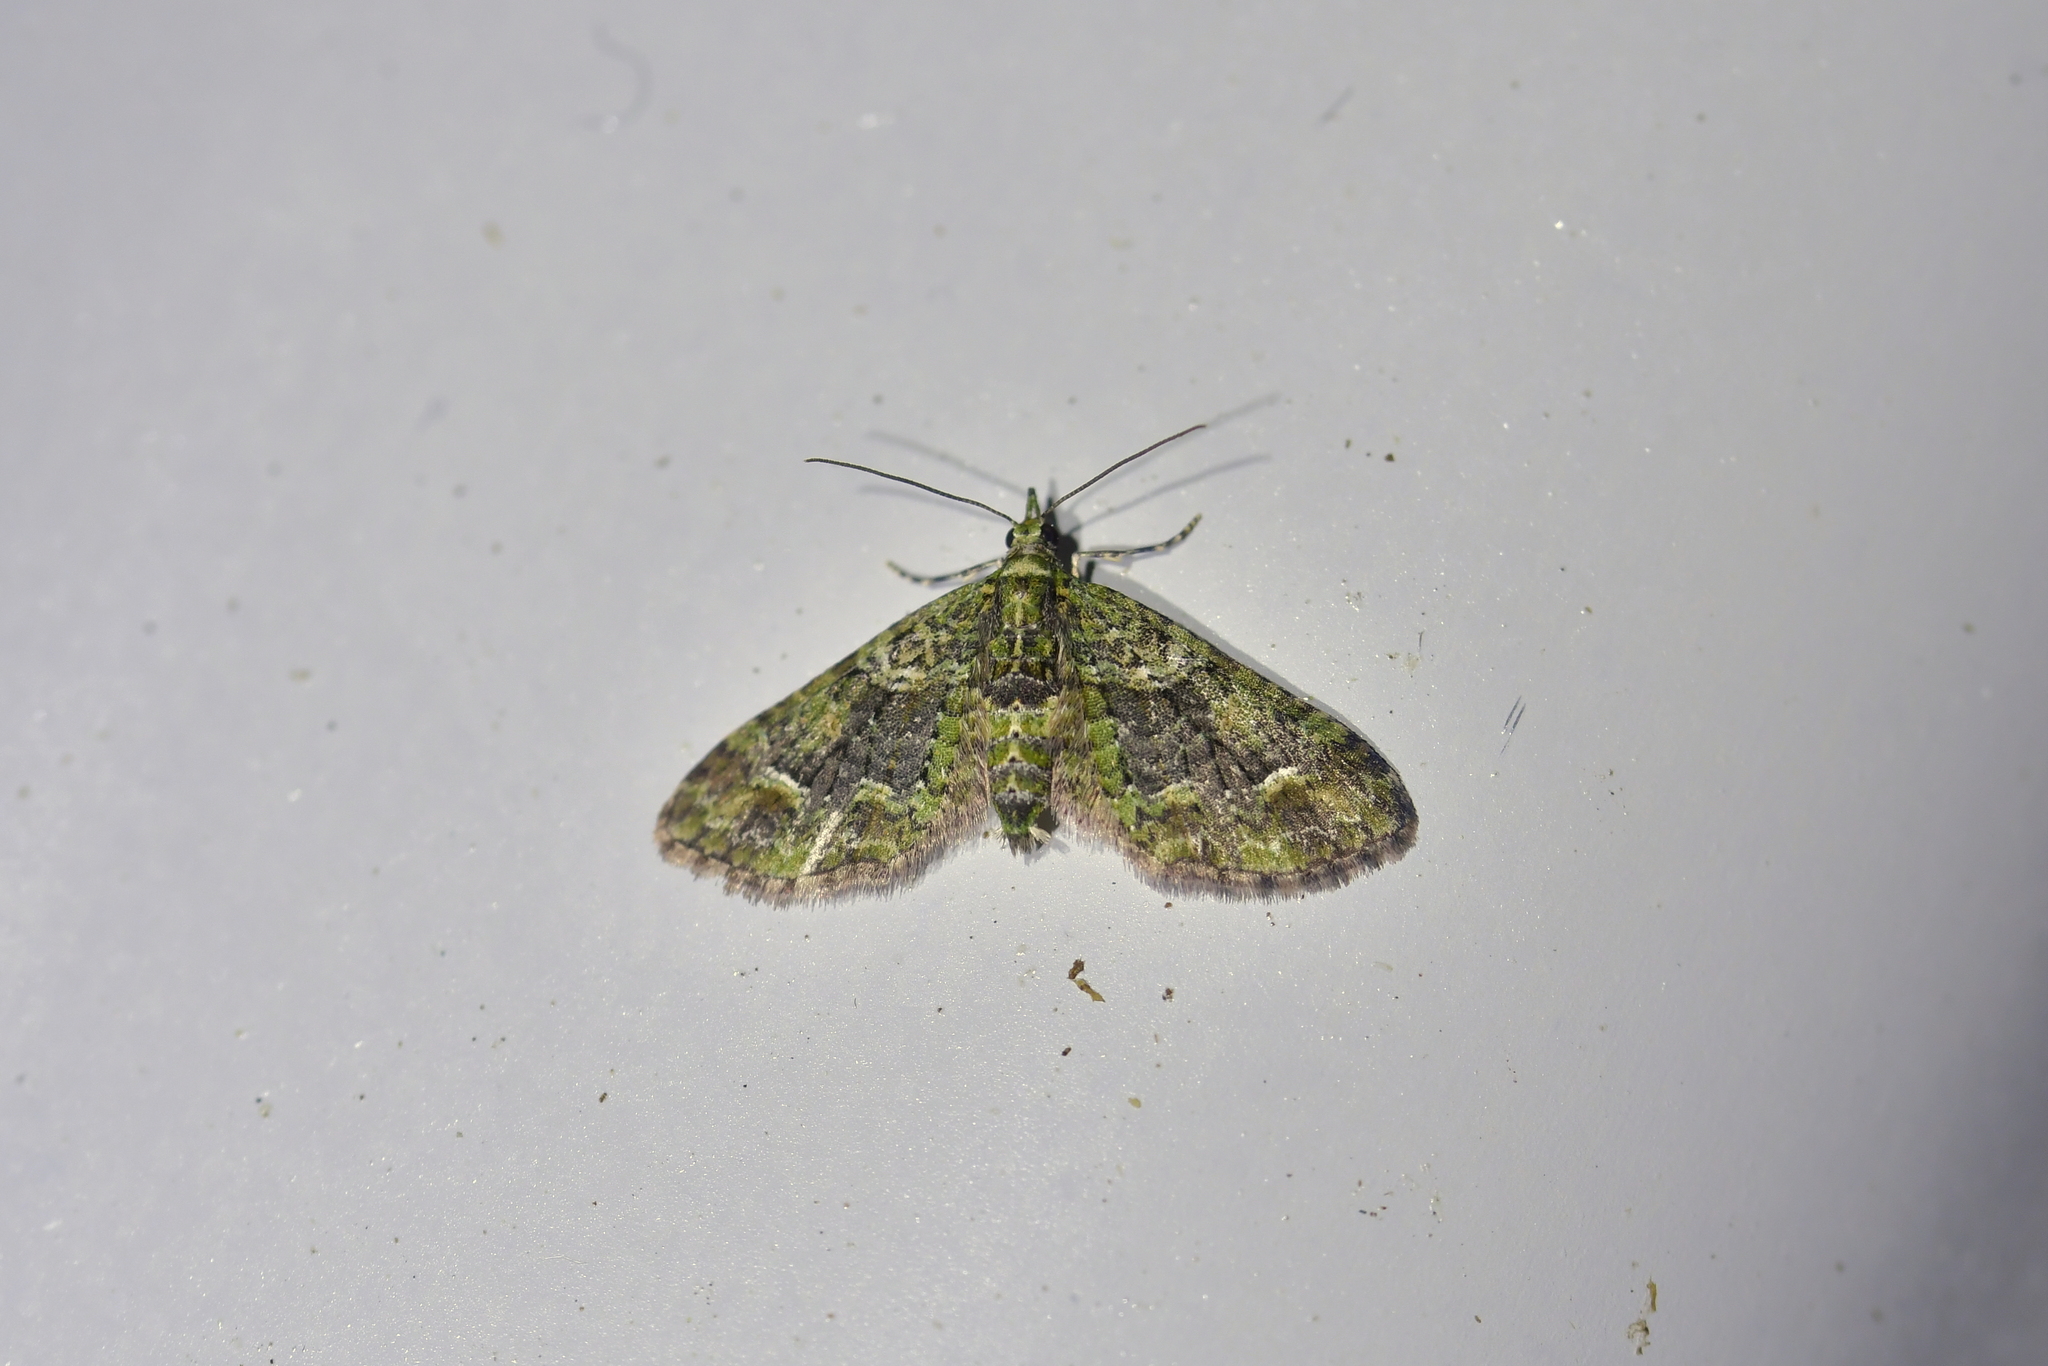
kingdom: Animalia
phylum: Arthropoda
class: Insecta
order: Lepidoptera
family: Geometridae
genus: Idaea
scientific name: Idaea mutanda
